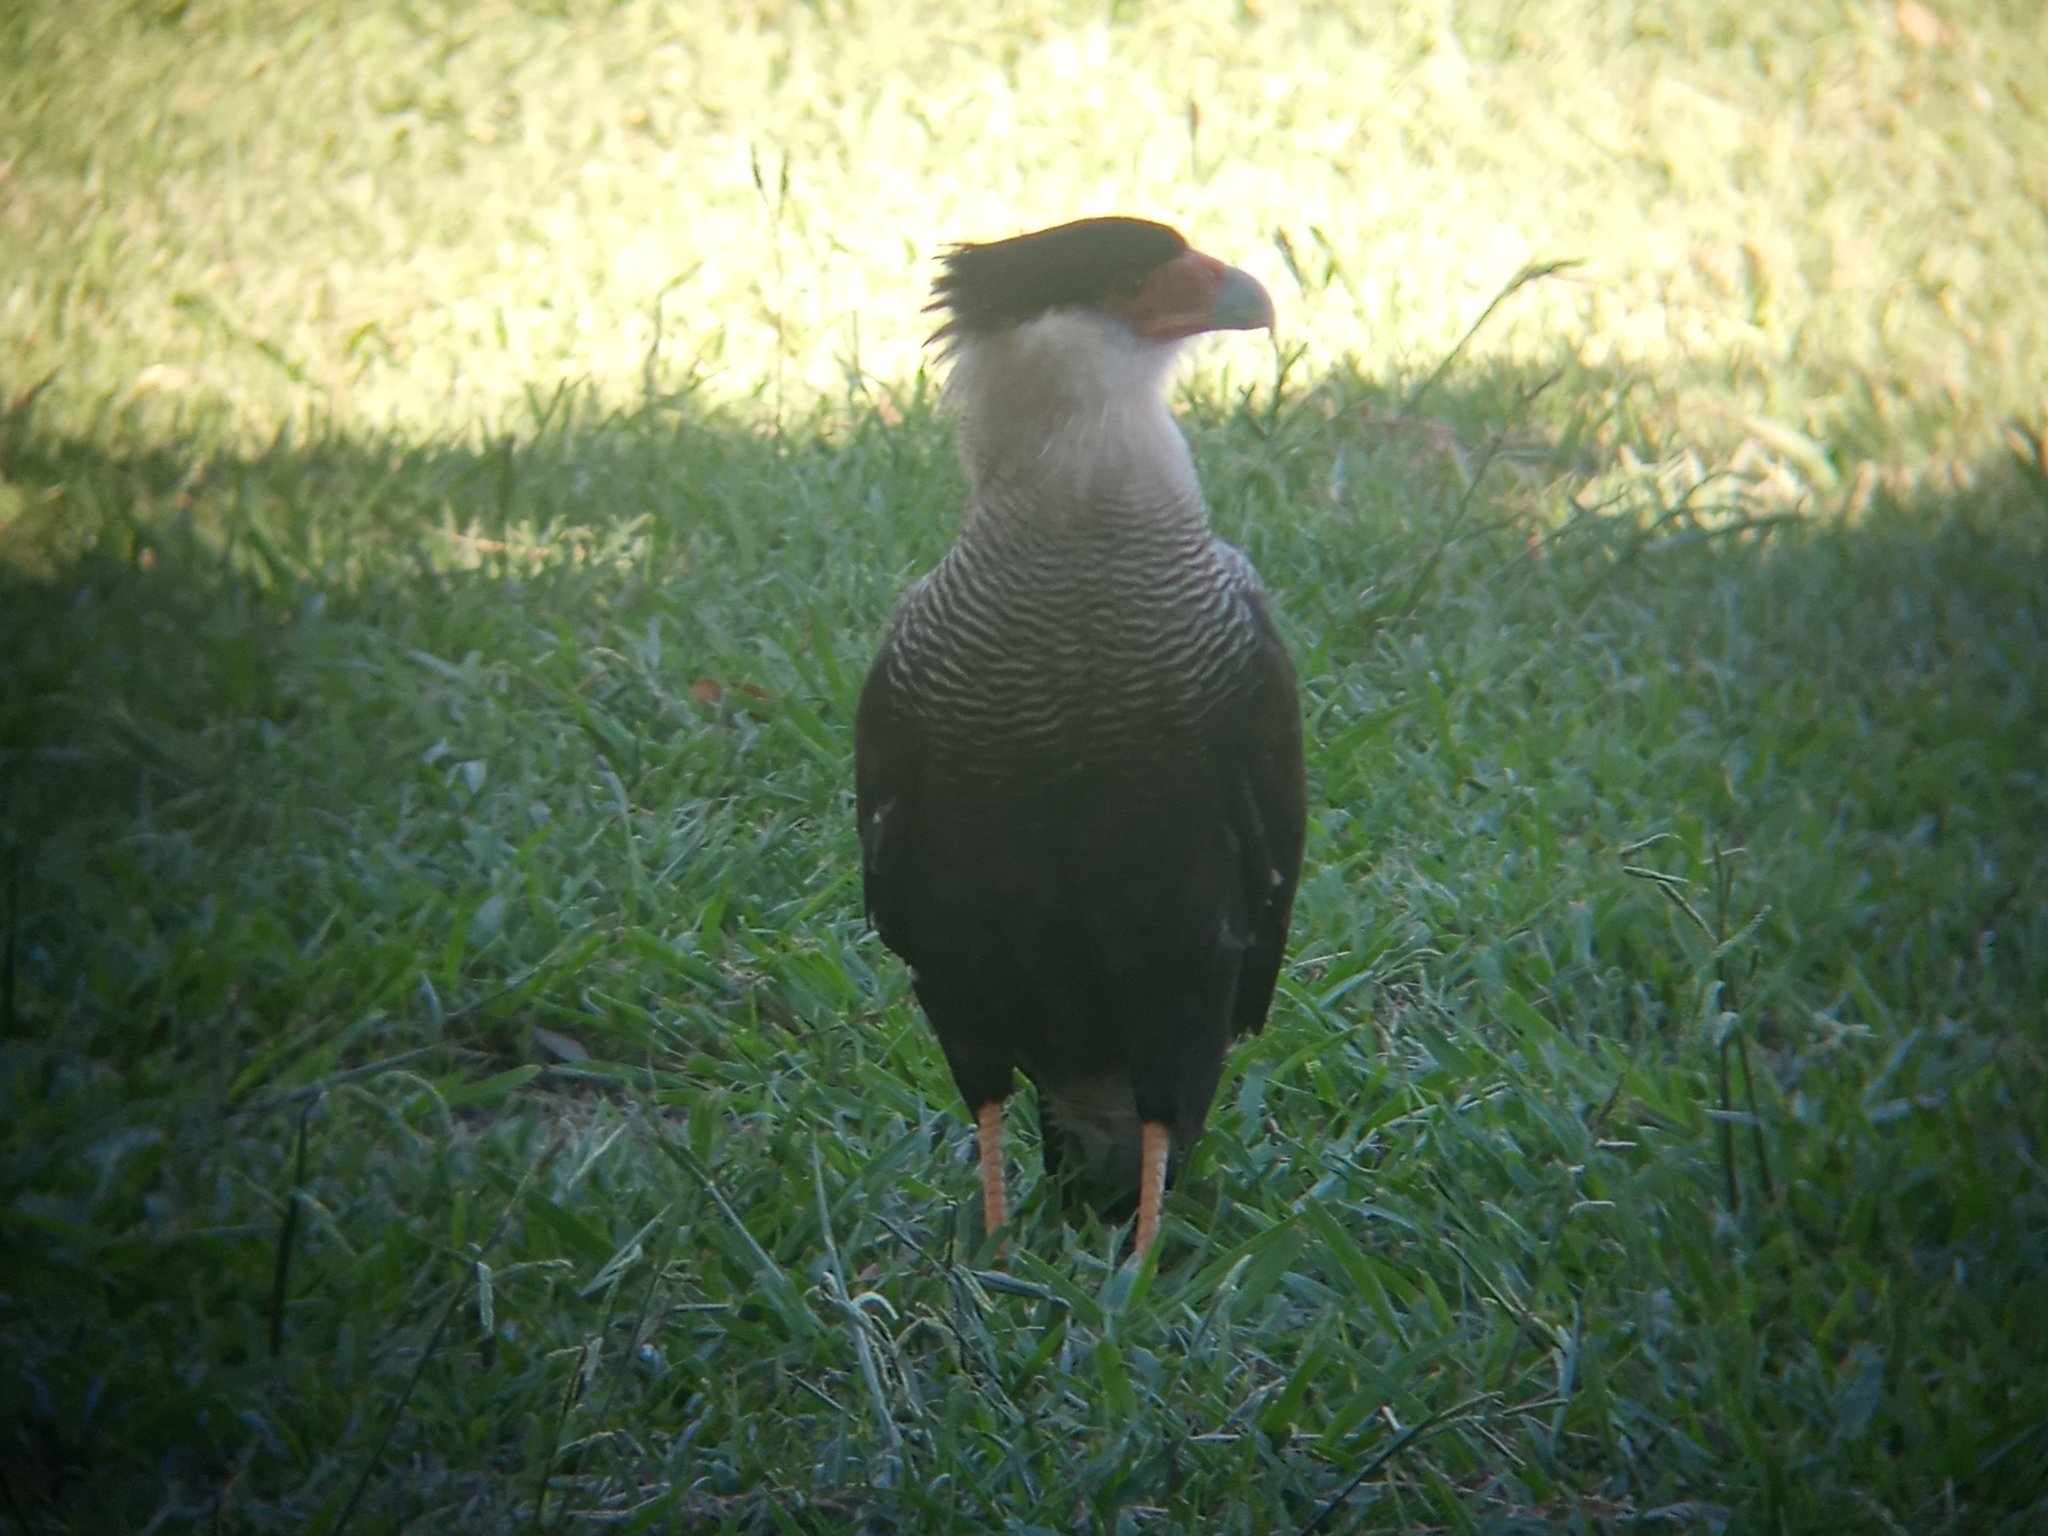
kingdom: Animalia
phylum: Chordata
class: Aves
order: Falconiformes
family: Falconidae
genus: Caracara
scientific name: Caracara plancus
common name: Southern caracara
